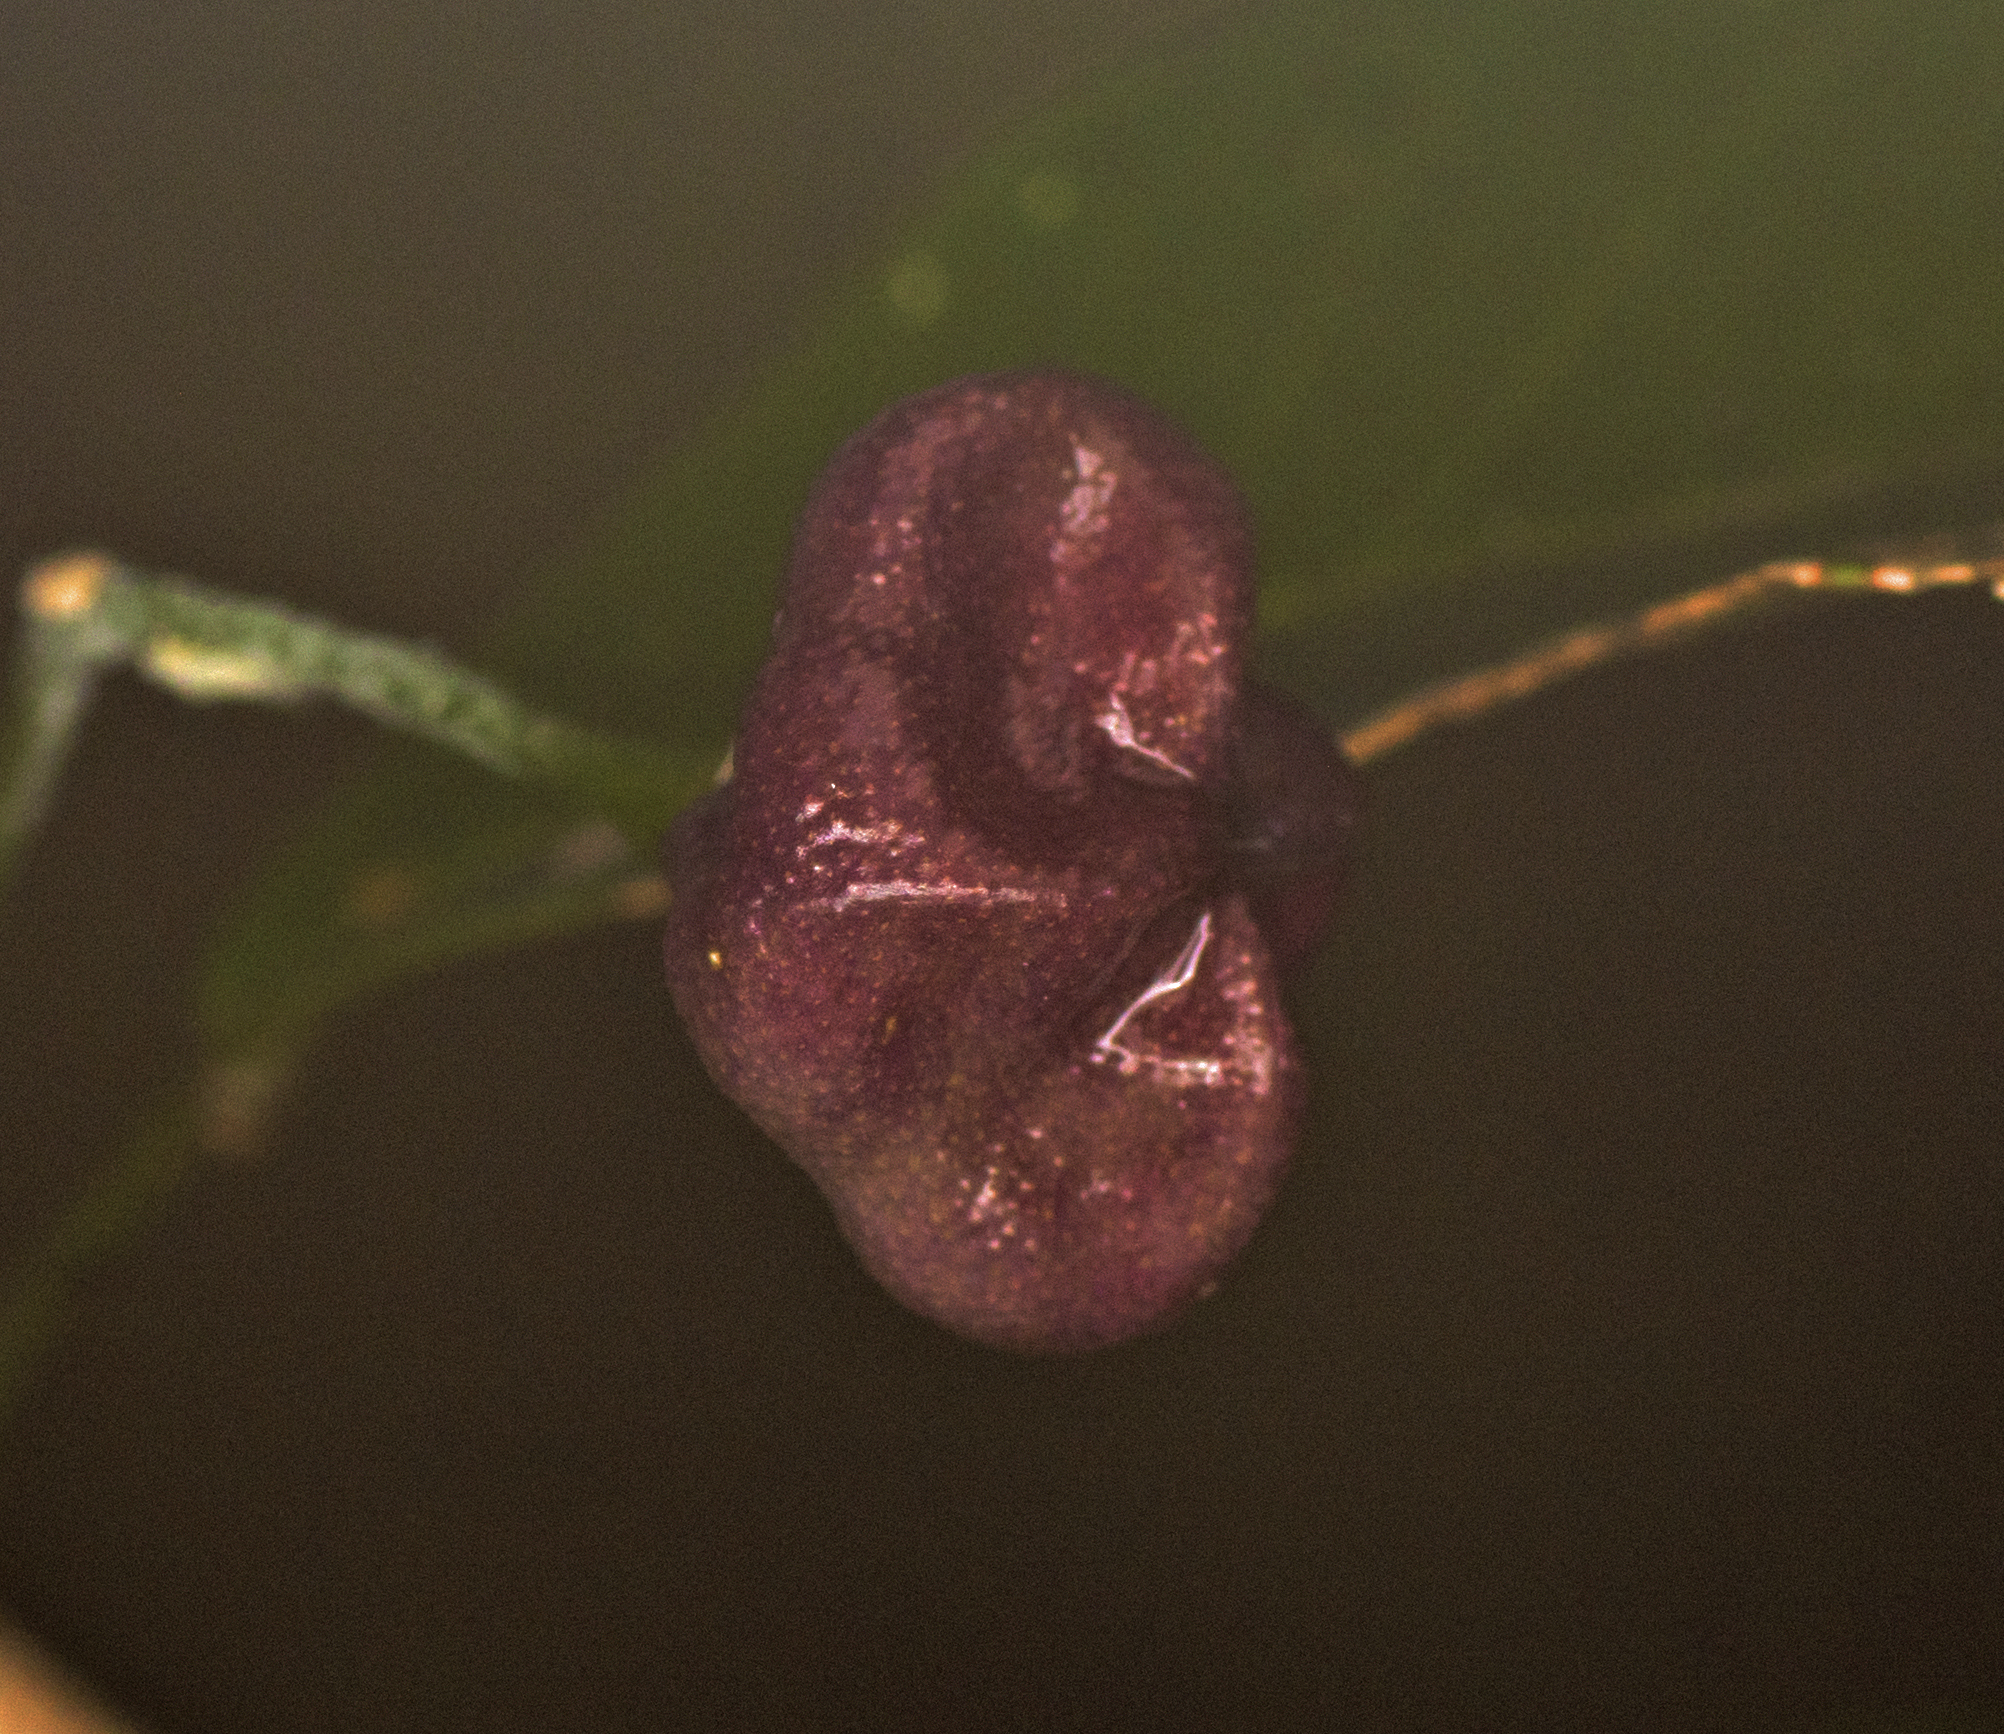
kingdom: Plantae
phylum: Tracheophyta
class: Magnoliopsida
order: Sapindales
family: Rutaceae
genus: Acronychia
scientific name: Acronychia laevis
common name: Hard aspen
